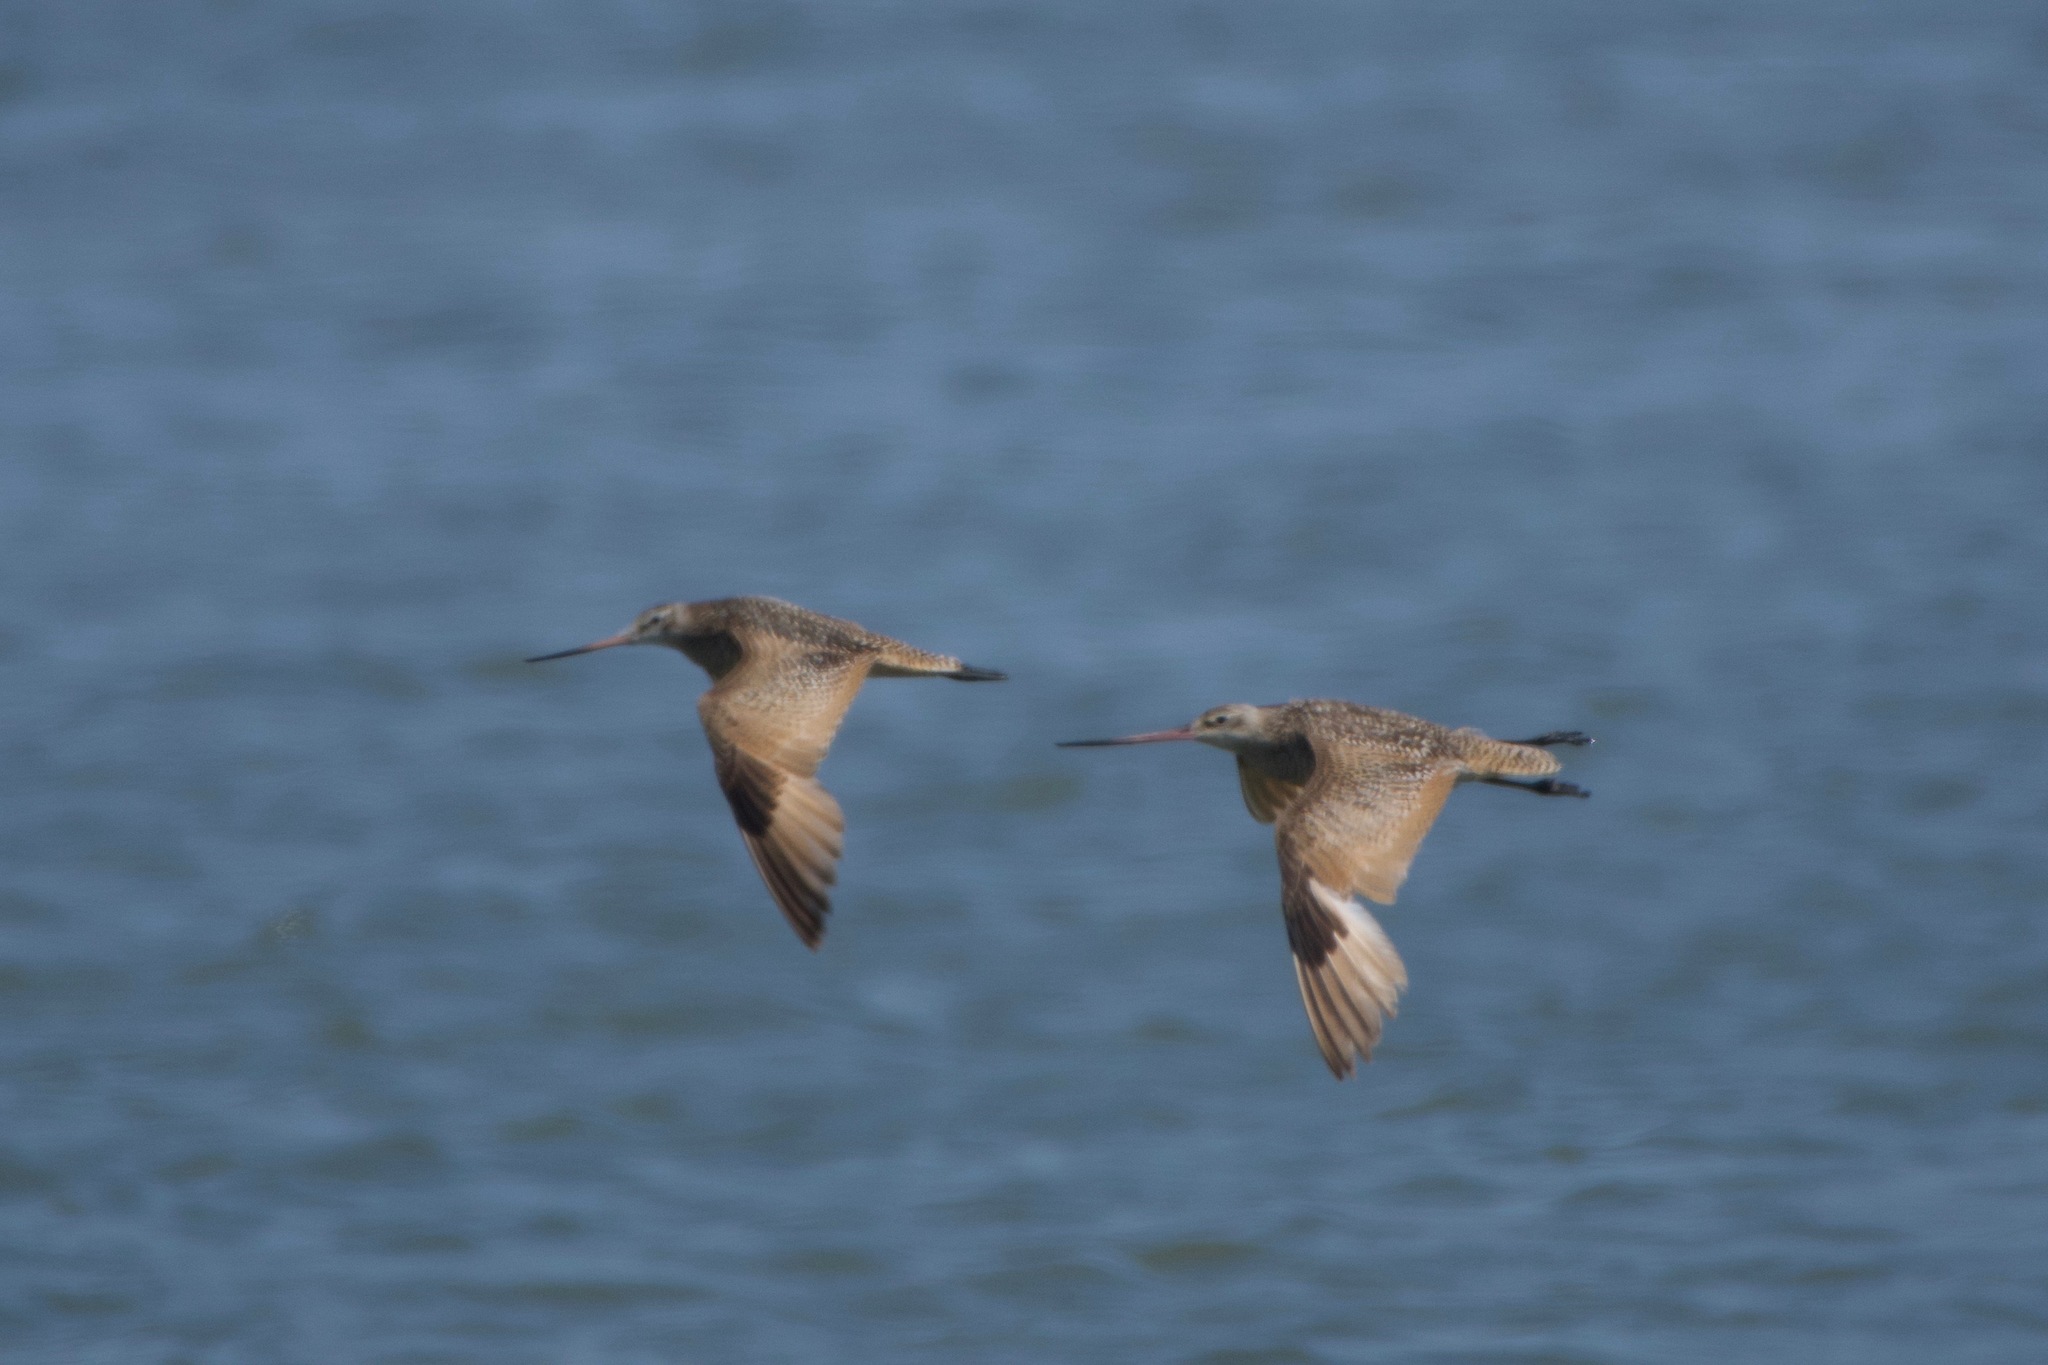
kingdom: Animalia
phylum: Chordata
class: Aves
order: Charadriiformes
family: Scolopacidae
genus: Limosa
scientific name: Limosa fedoa
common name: Marbled godwit
